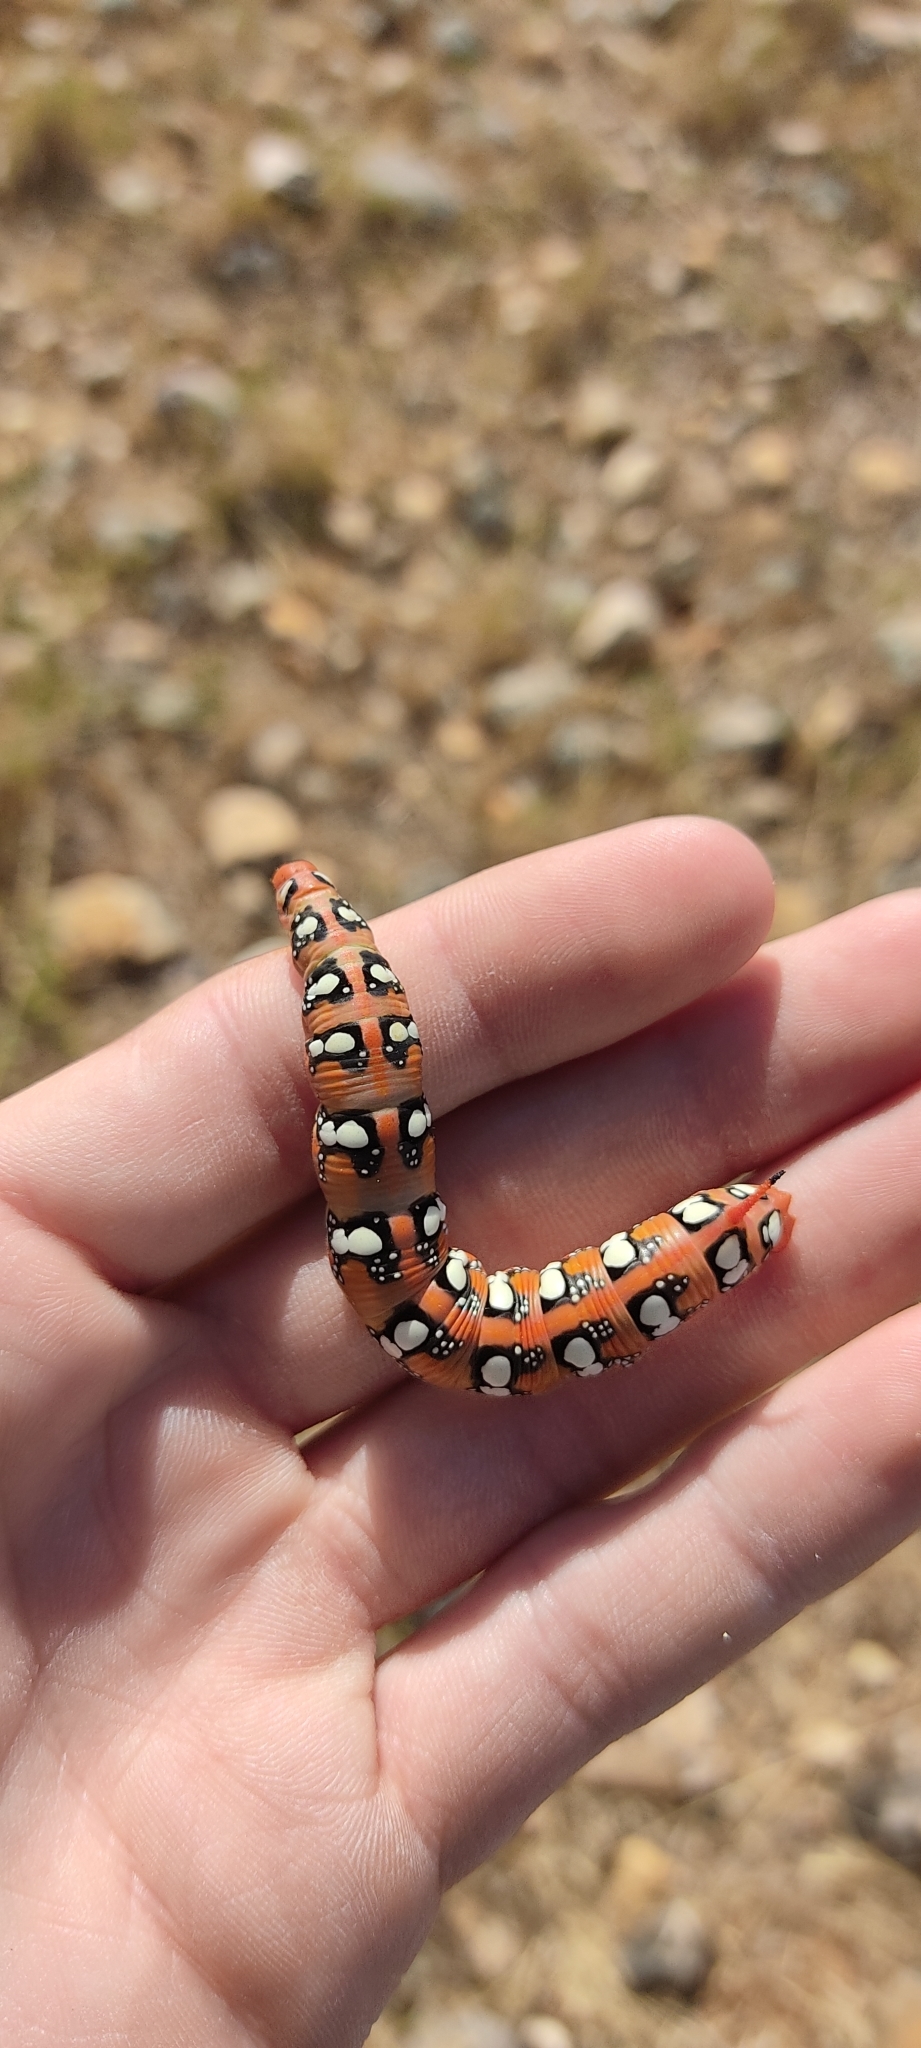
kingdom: Animalia
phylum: Arthropoda
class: Insecta
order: Lepidoptera
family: Sphingidae
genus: Hyles
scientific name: Hyles euphorbiae
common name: Spurge hawk-moth
